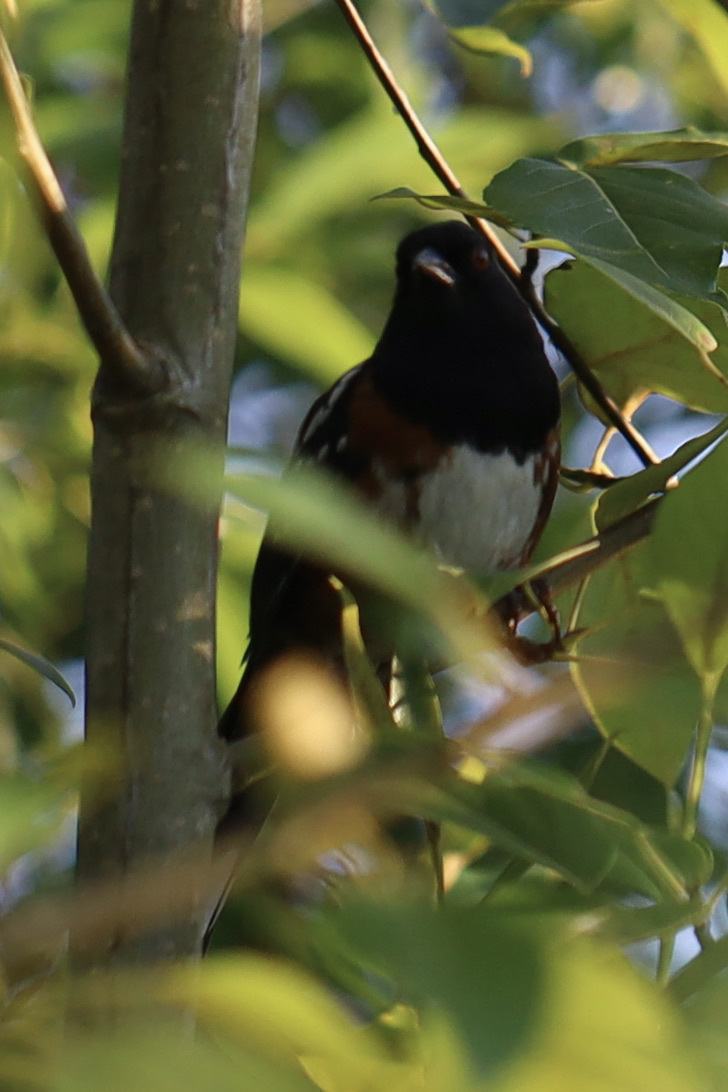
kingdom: Animalia
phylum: Chordata
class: Aves
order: Passeriformes
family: Passerellidae
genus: Pipilo
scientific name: Pipilo maculatus
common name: Spotted towhee
